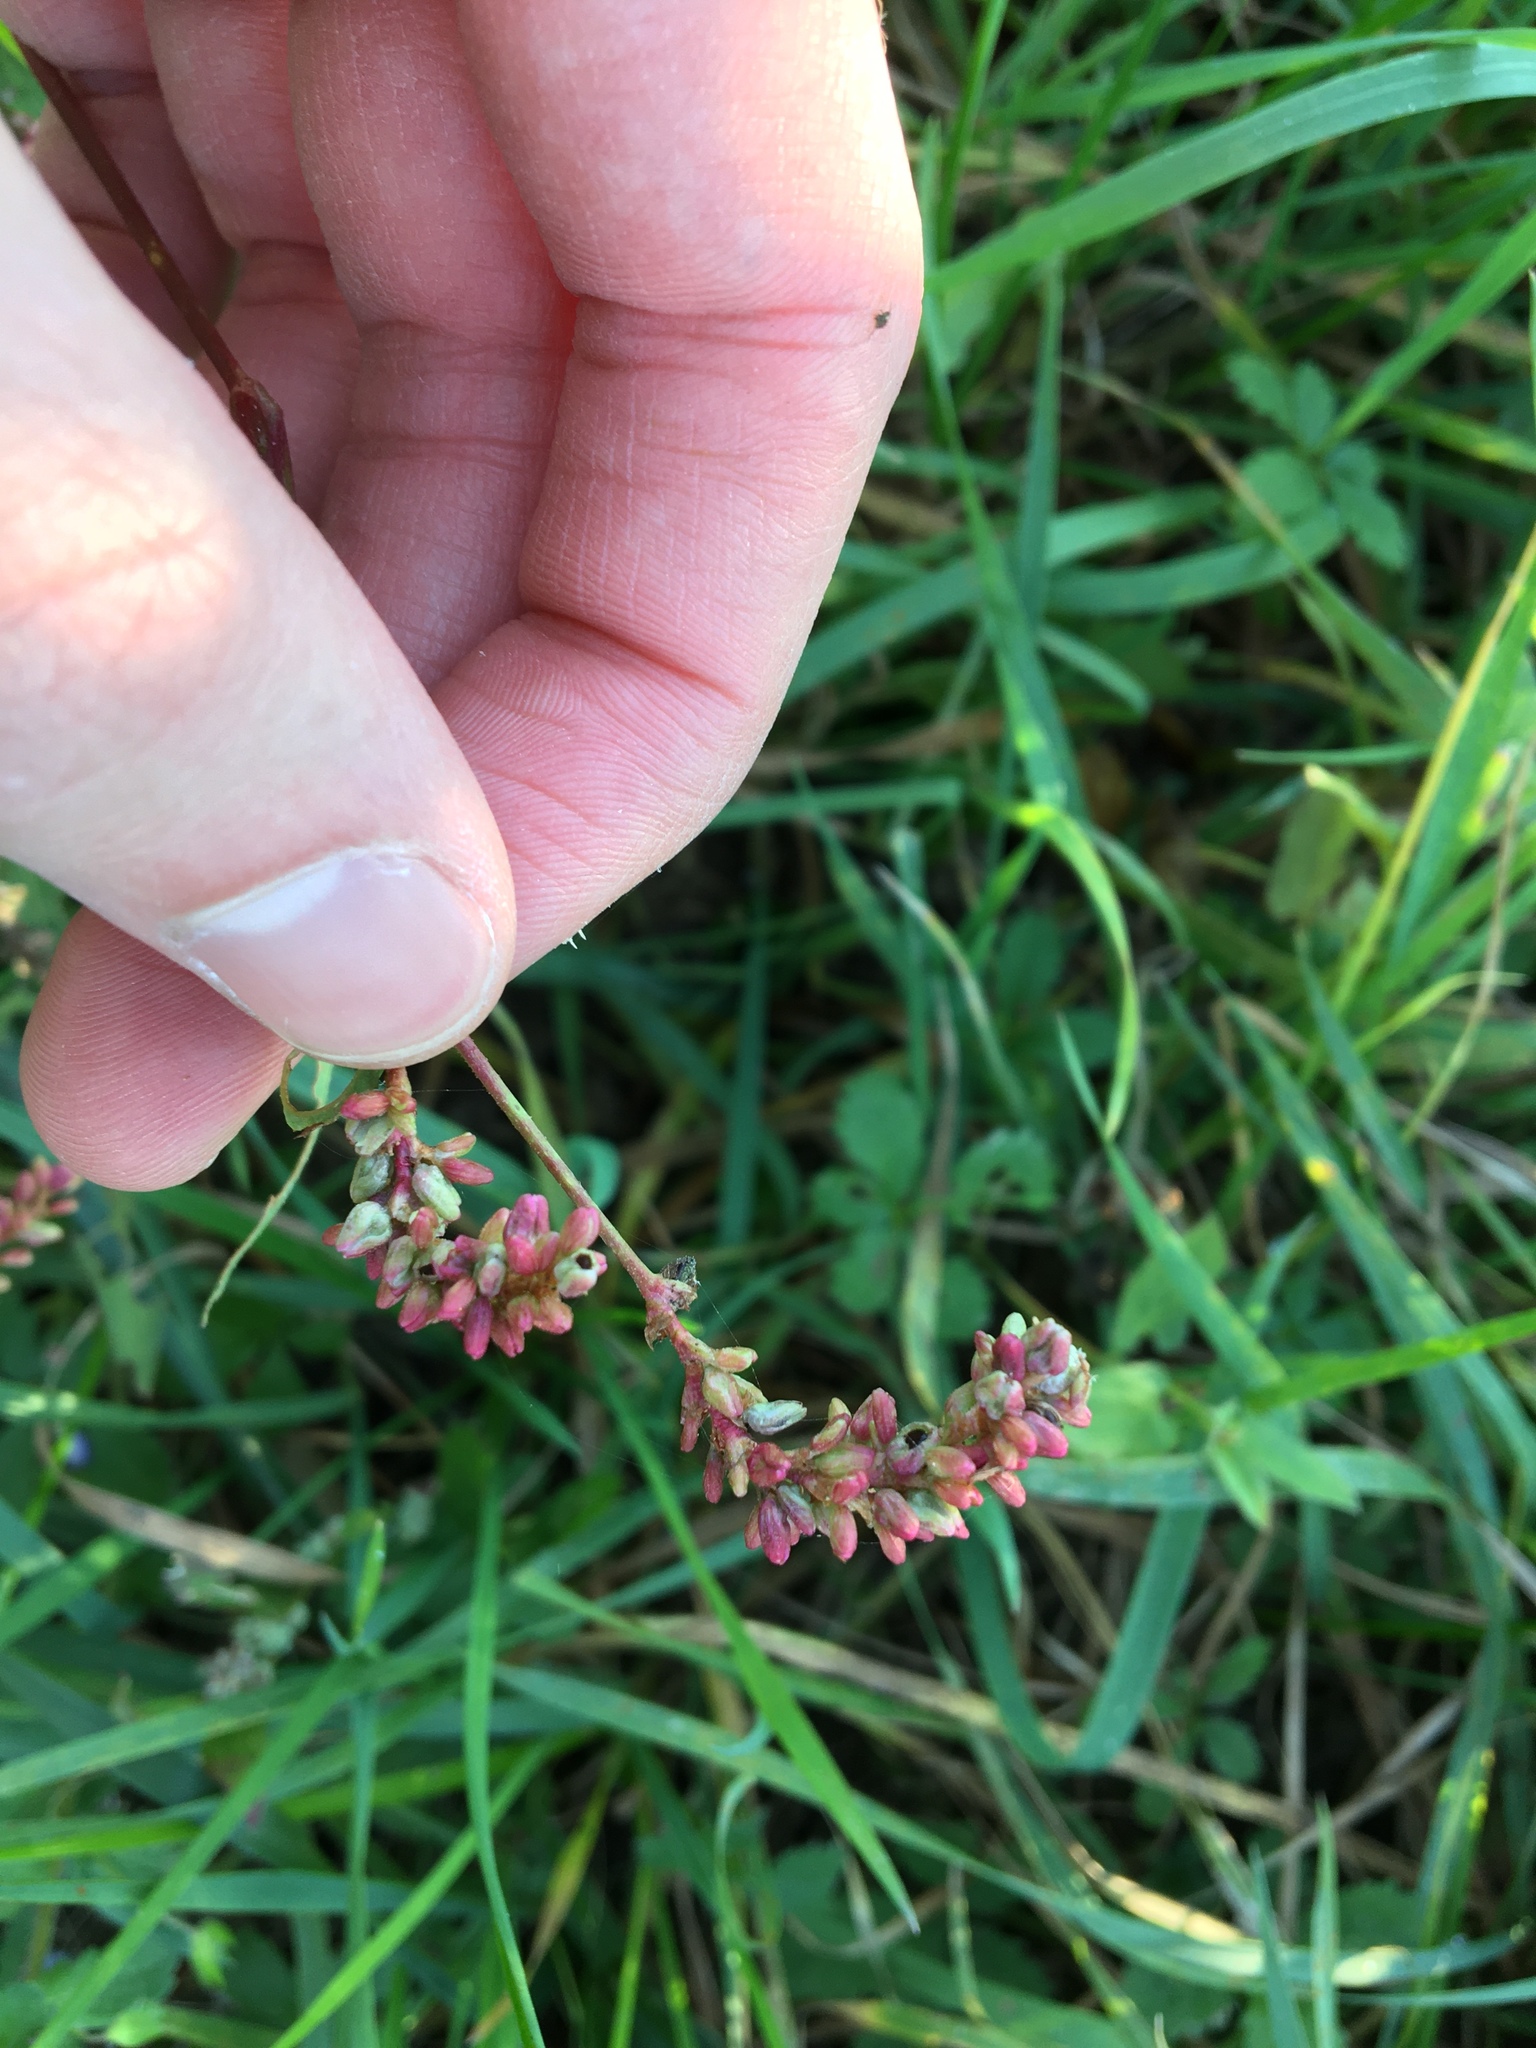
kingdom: Plantae
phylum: Tracheophyta
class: Magnoliopsida
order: Caryophyllales
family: Polygonaceae
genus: Persicaria
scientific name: Persicaria maculosa
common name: Redshank
